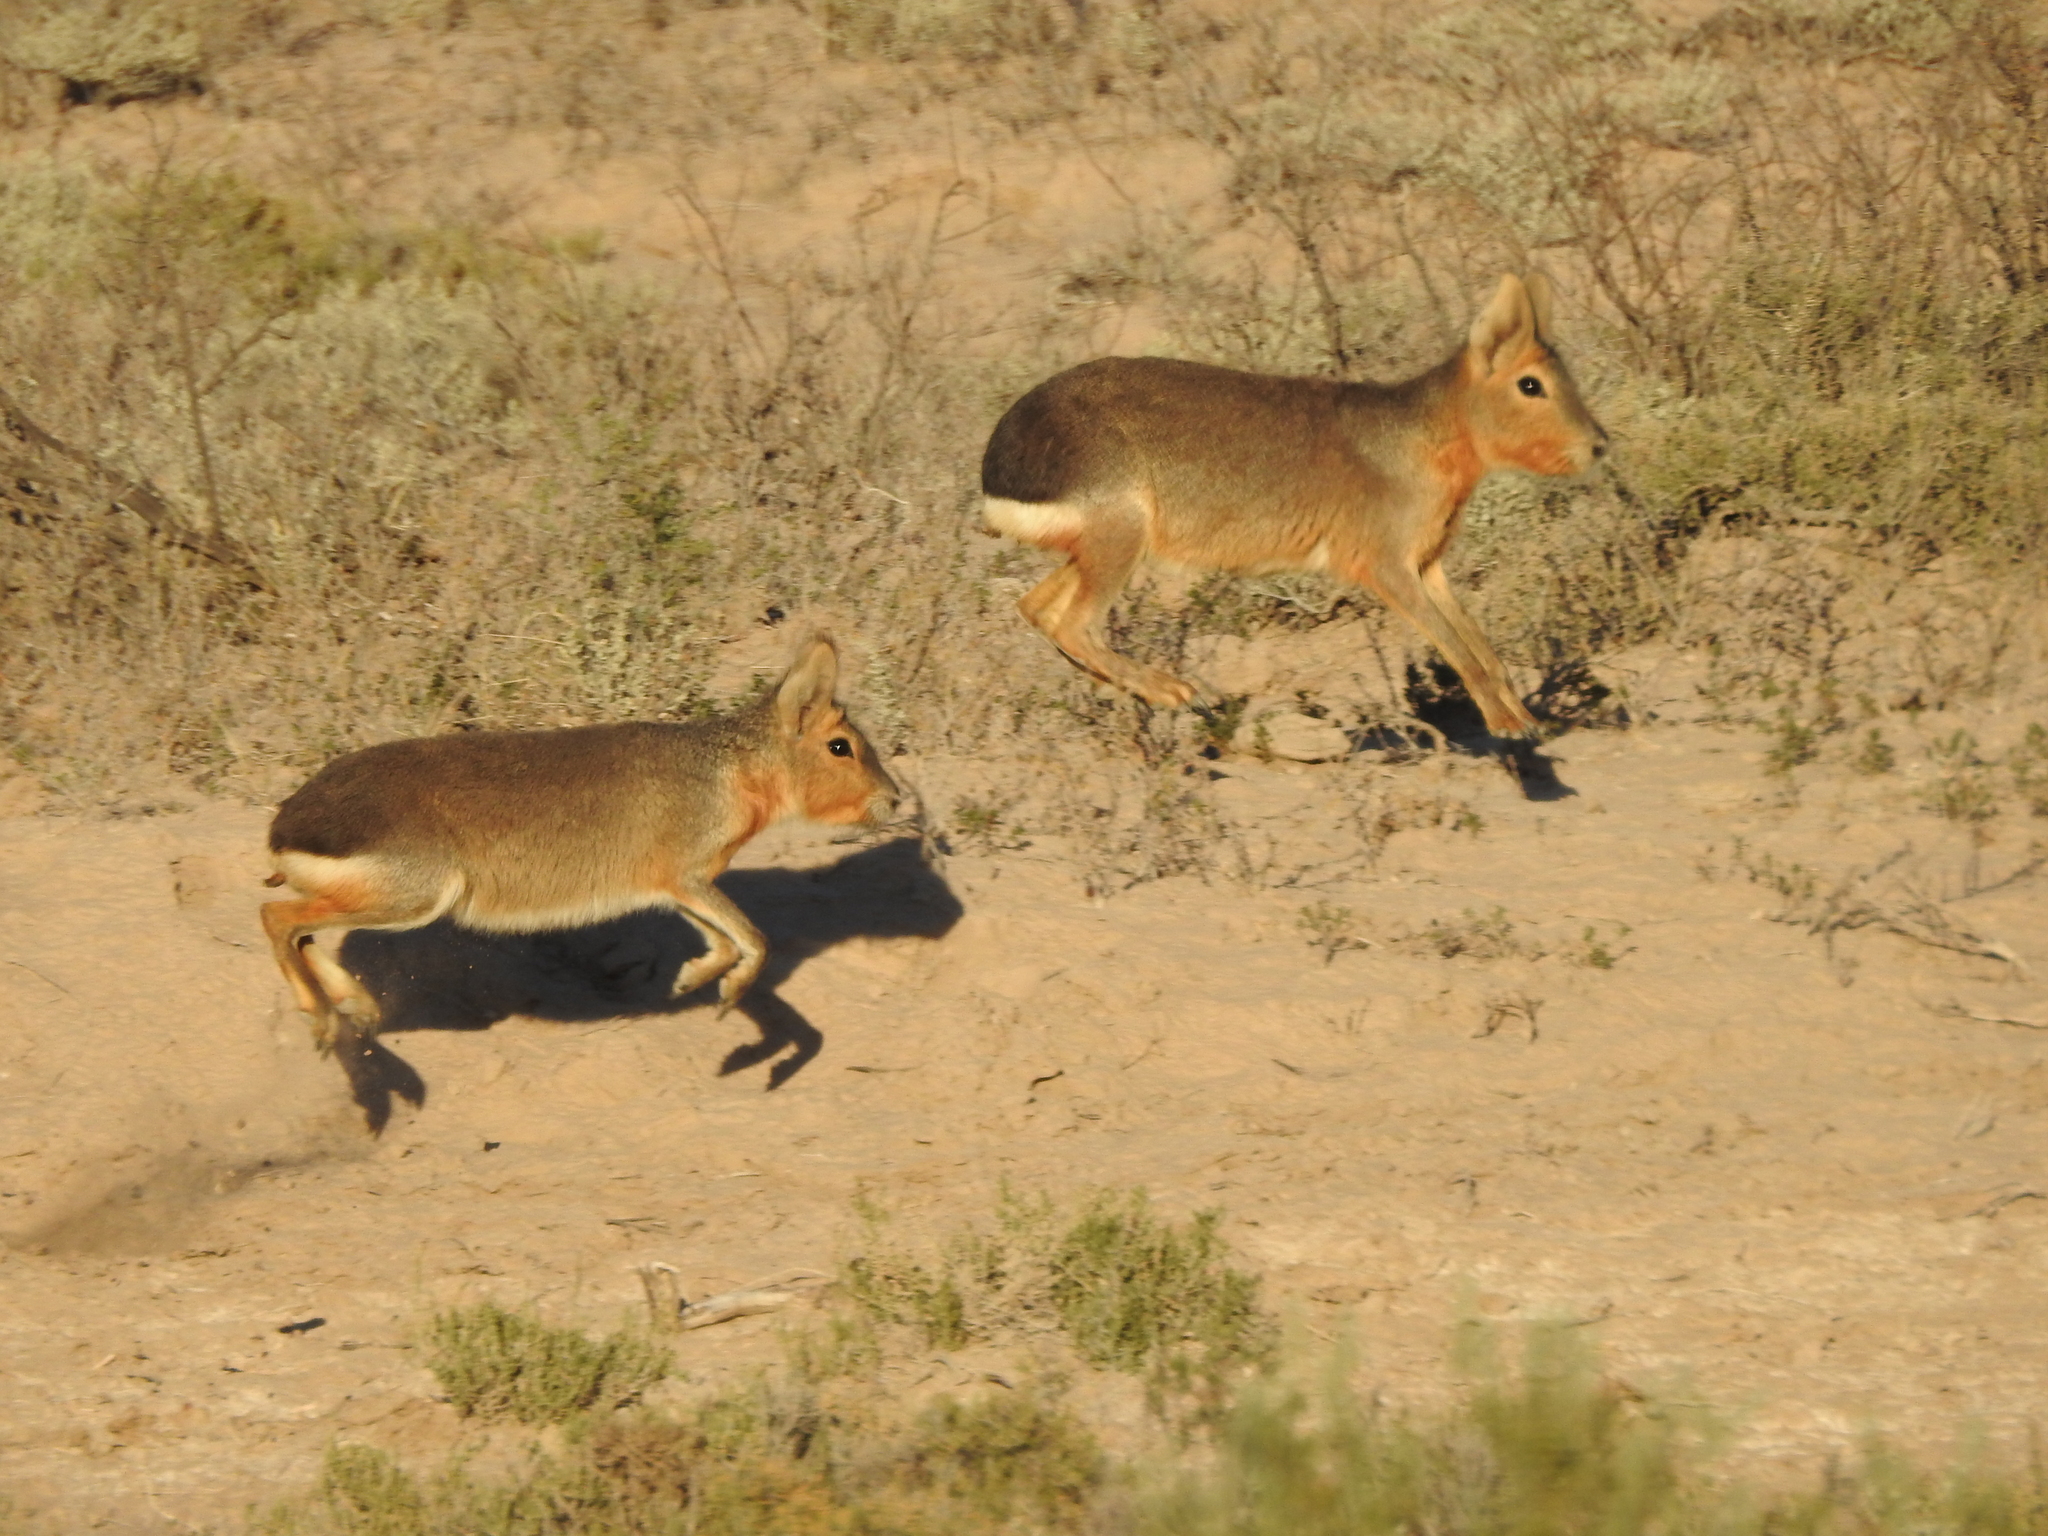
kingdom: Animalia
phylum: Chordata
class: Mammalia
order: Rodentia
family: Caviidae
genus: Dolichotis
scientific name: Dolichotis patagonum
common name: Patagonian mara
